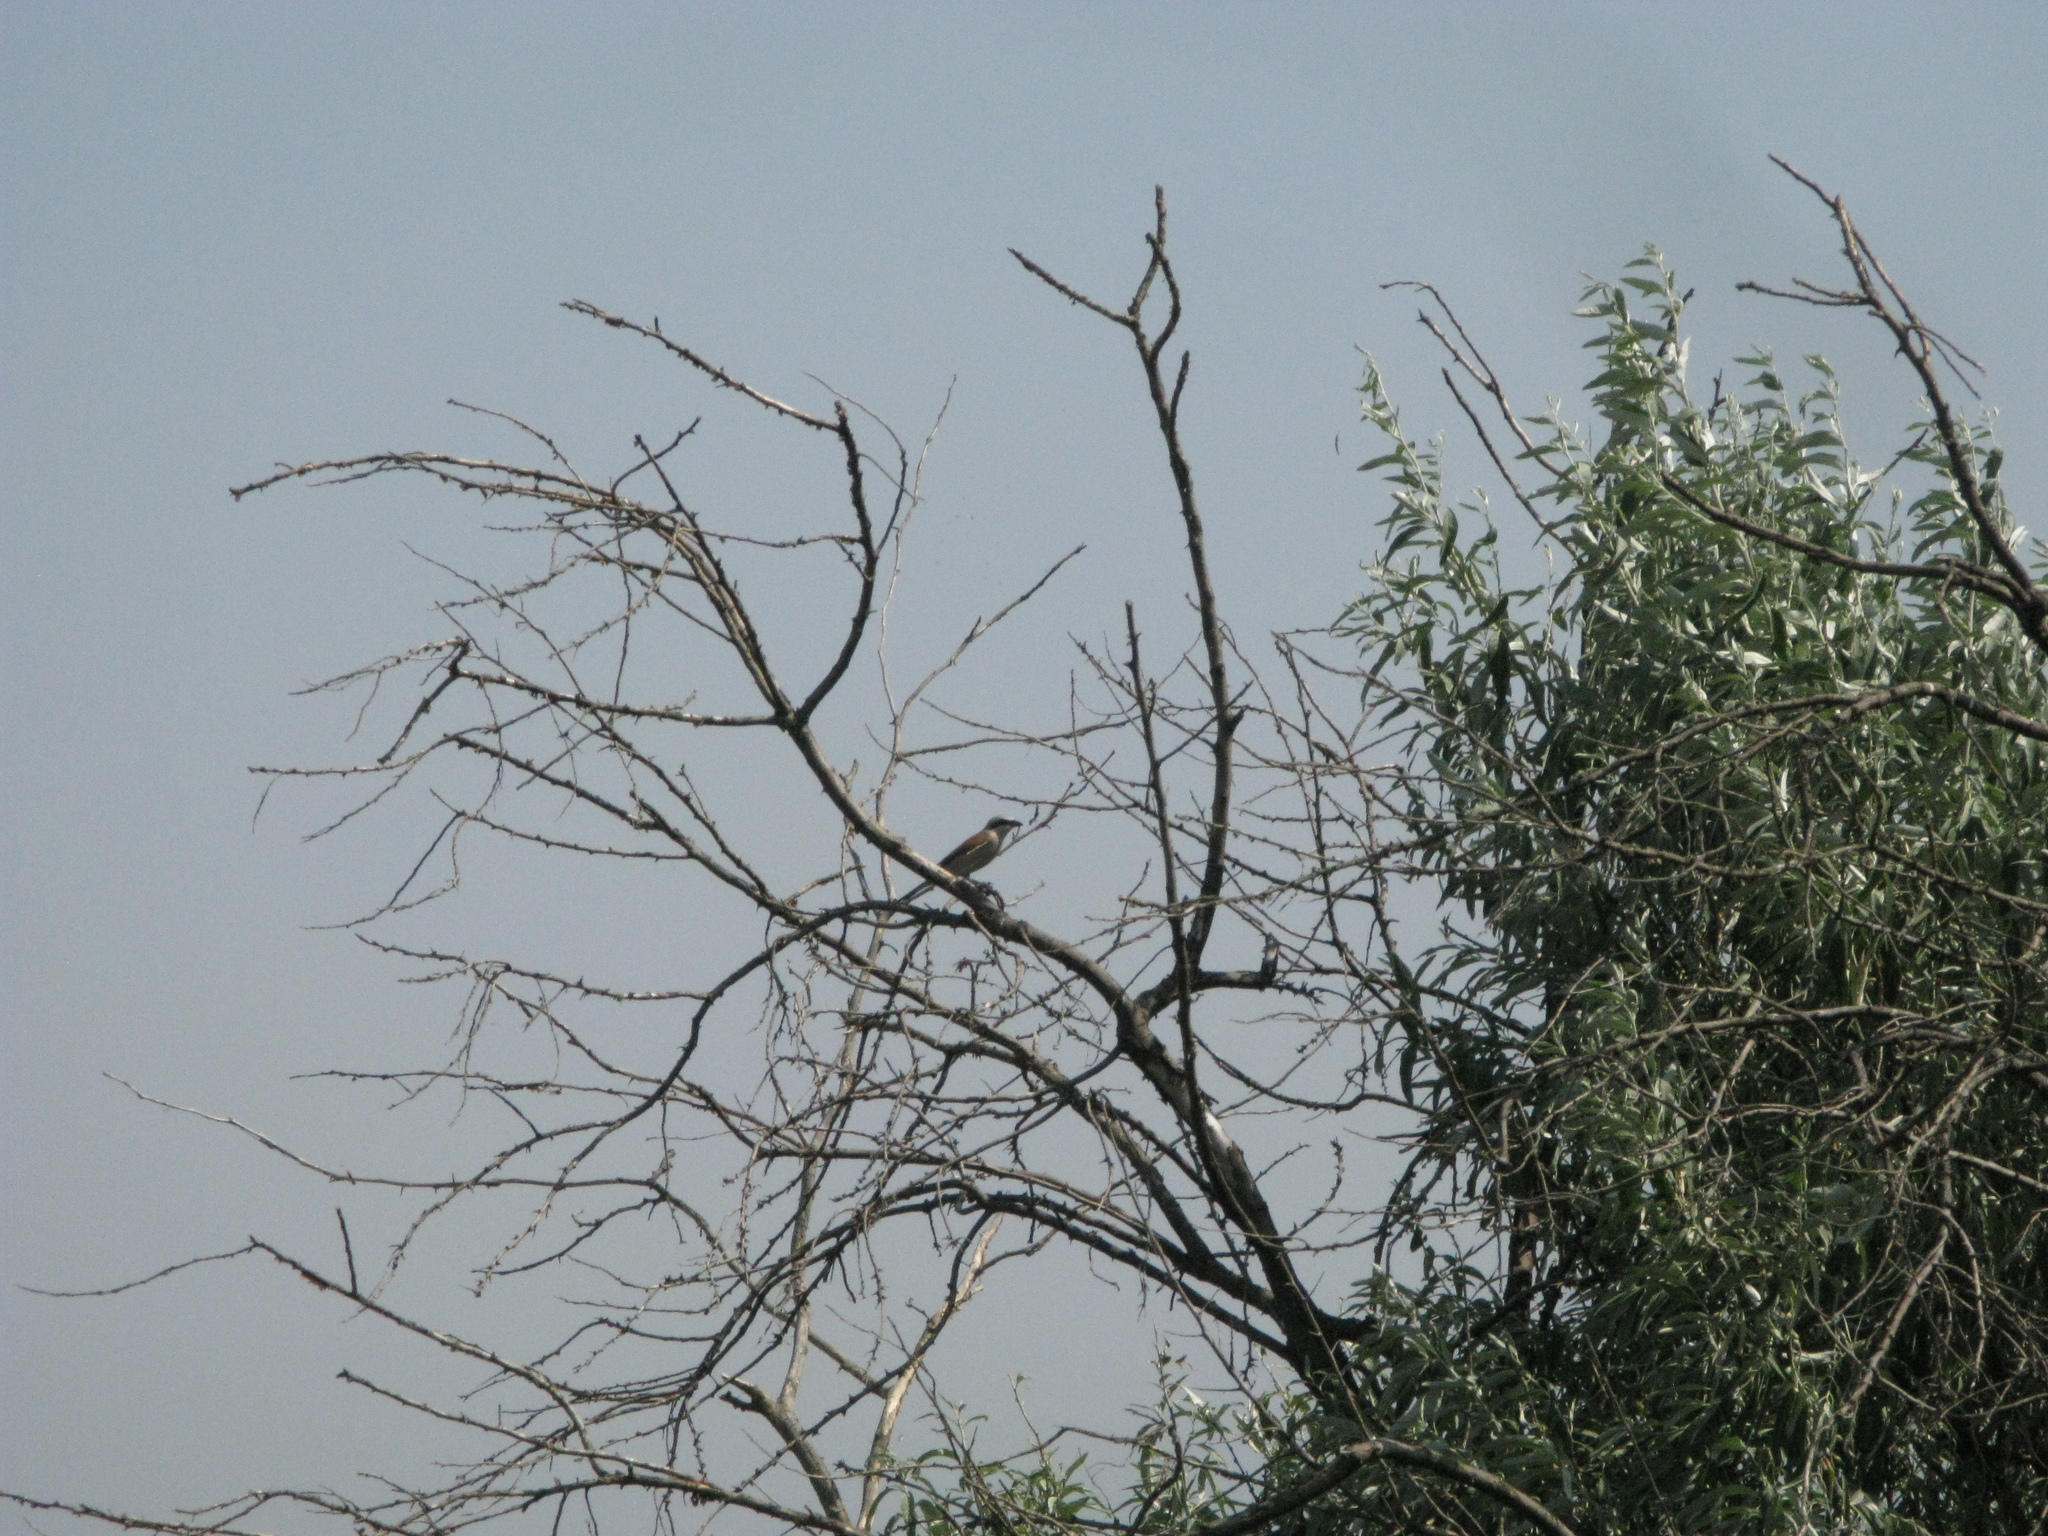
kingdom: Animalia
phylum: Chordata
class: Aves
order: Passeriformes
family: Laniidae
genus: Lanius
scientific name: Lanius collurio
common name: Red-backed shrike
